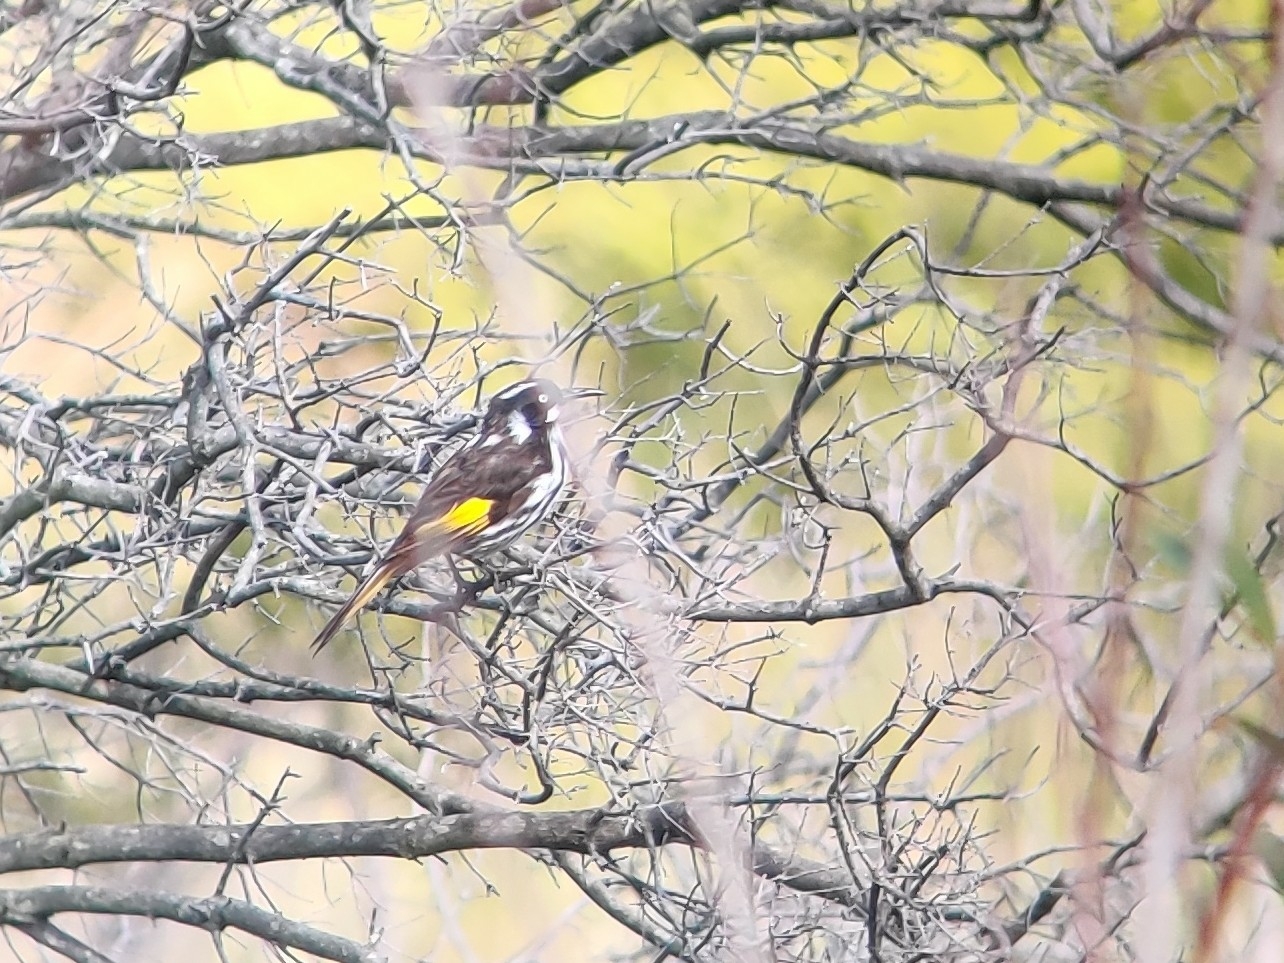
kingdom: Animalia
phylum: Chordata
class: Aves
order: Passeriformes
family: Meliphagidae
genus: Phylidonyris
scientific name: Phylidonyris novaehollandiae
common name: New holland honeyeater
